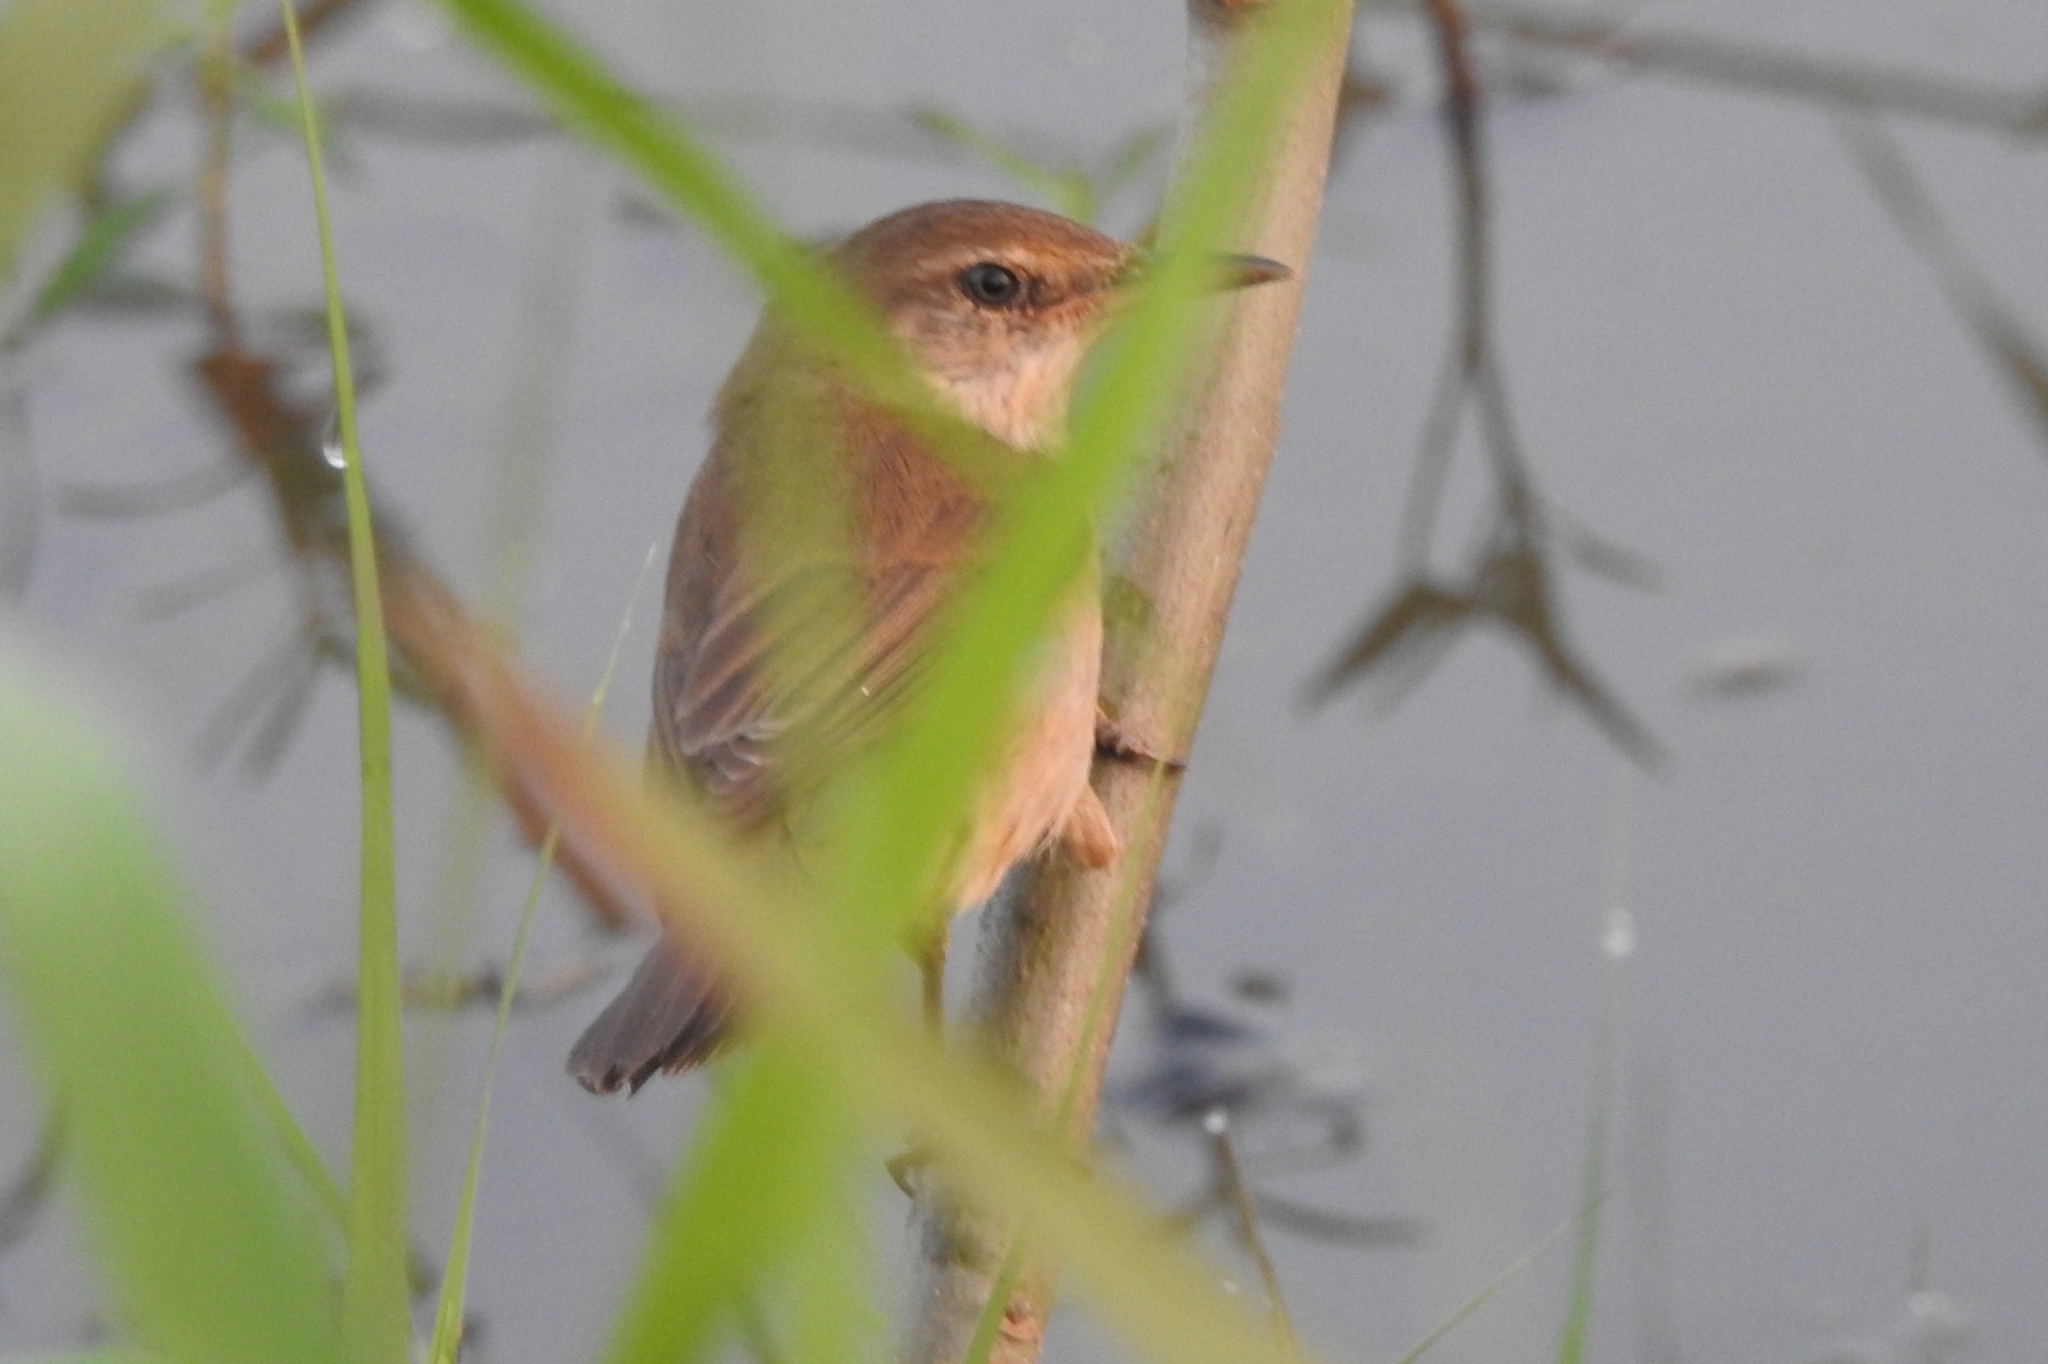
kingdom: Animalia
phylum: Chordata
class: Aves
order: Passeriformes
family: Acrocephalidae
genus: Acrocephalus
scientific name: Acrocephalus stentoreus
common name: Clamorous reed warbler
